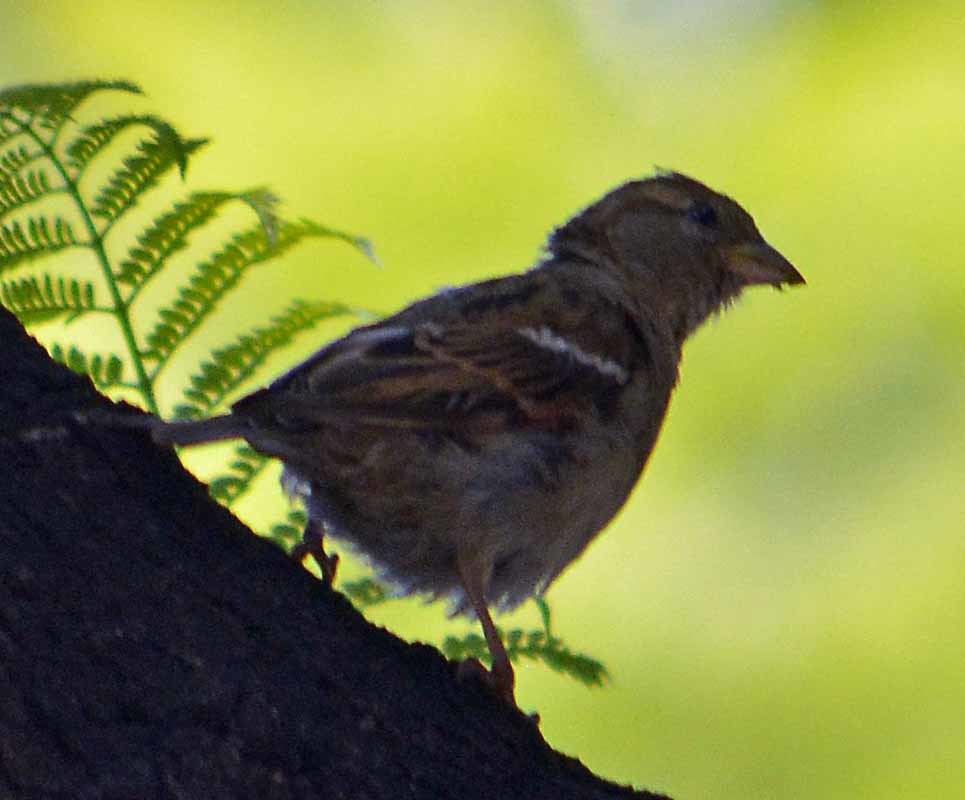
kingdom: Animalia
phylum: Chordata
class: Aves
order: Passeriformes
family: Passeridae
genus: Passer
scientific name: Passer domesticus
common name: House sparrow
